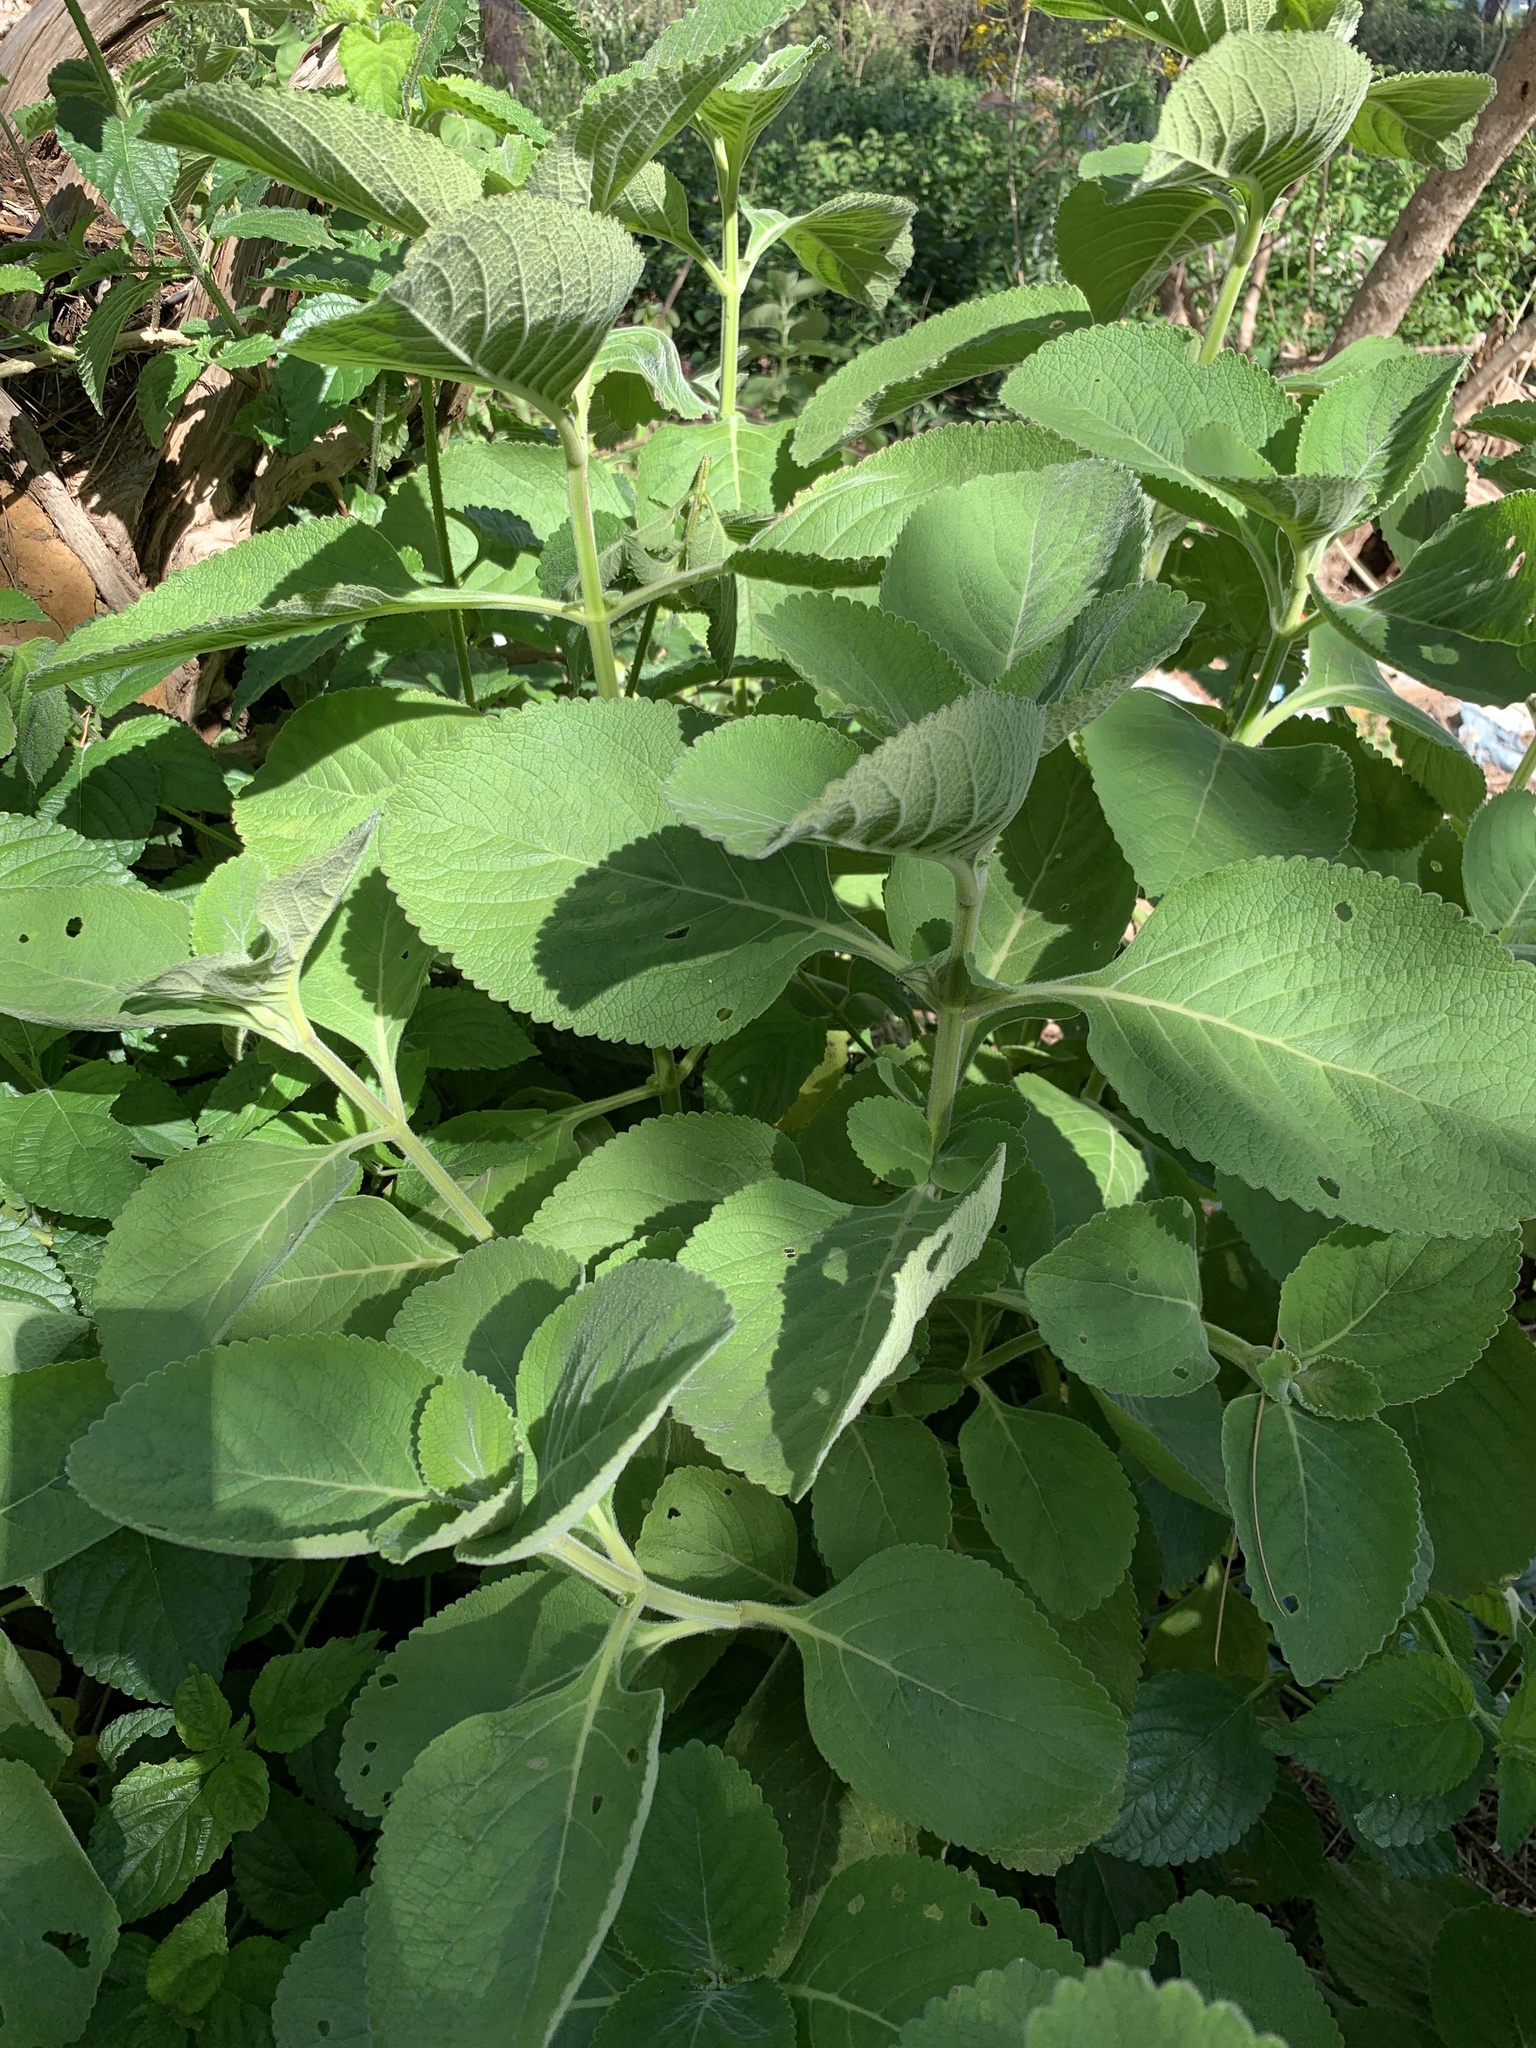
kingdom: Plantae
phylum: Tracheophyta
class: Magnoliopsida
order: Lamiales
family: Lamiaceae
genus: Coleus
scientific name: Coleus barbatus
